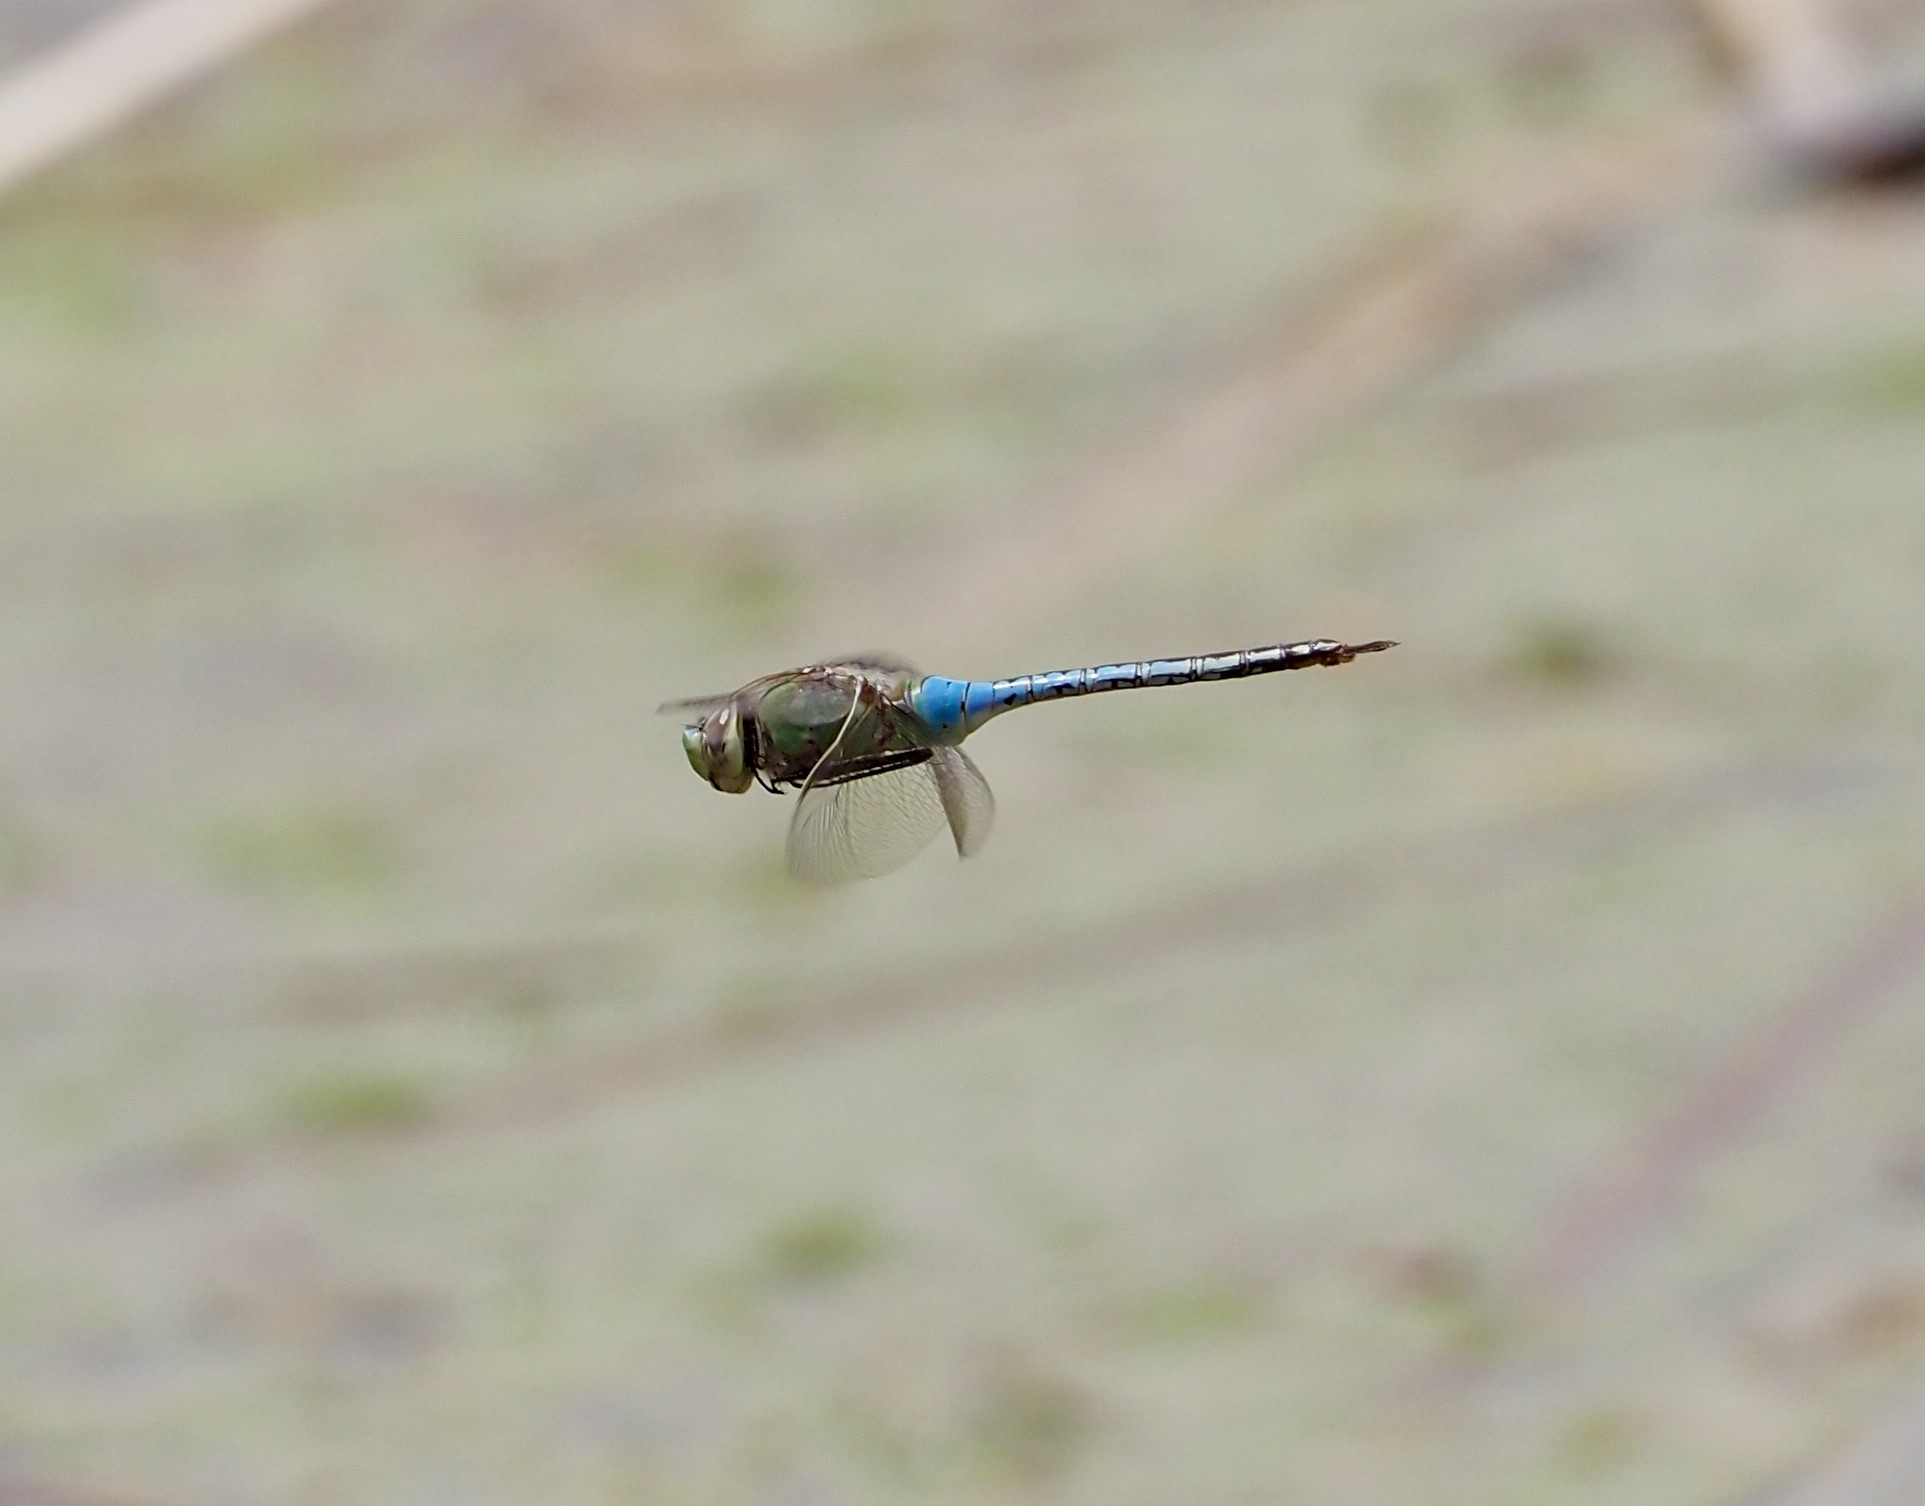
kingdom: Animalia
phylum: Arthropoda
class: Insecta
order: Odonata
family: Aeshnidae
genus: Anax
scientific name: Anax junius
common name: Common green darner
